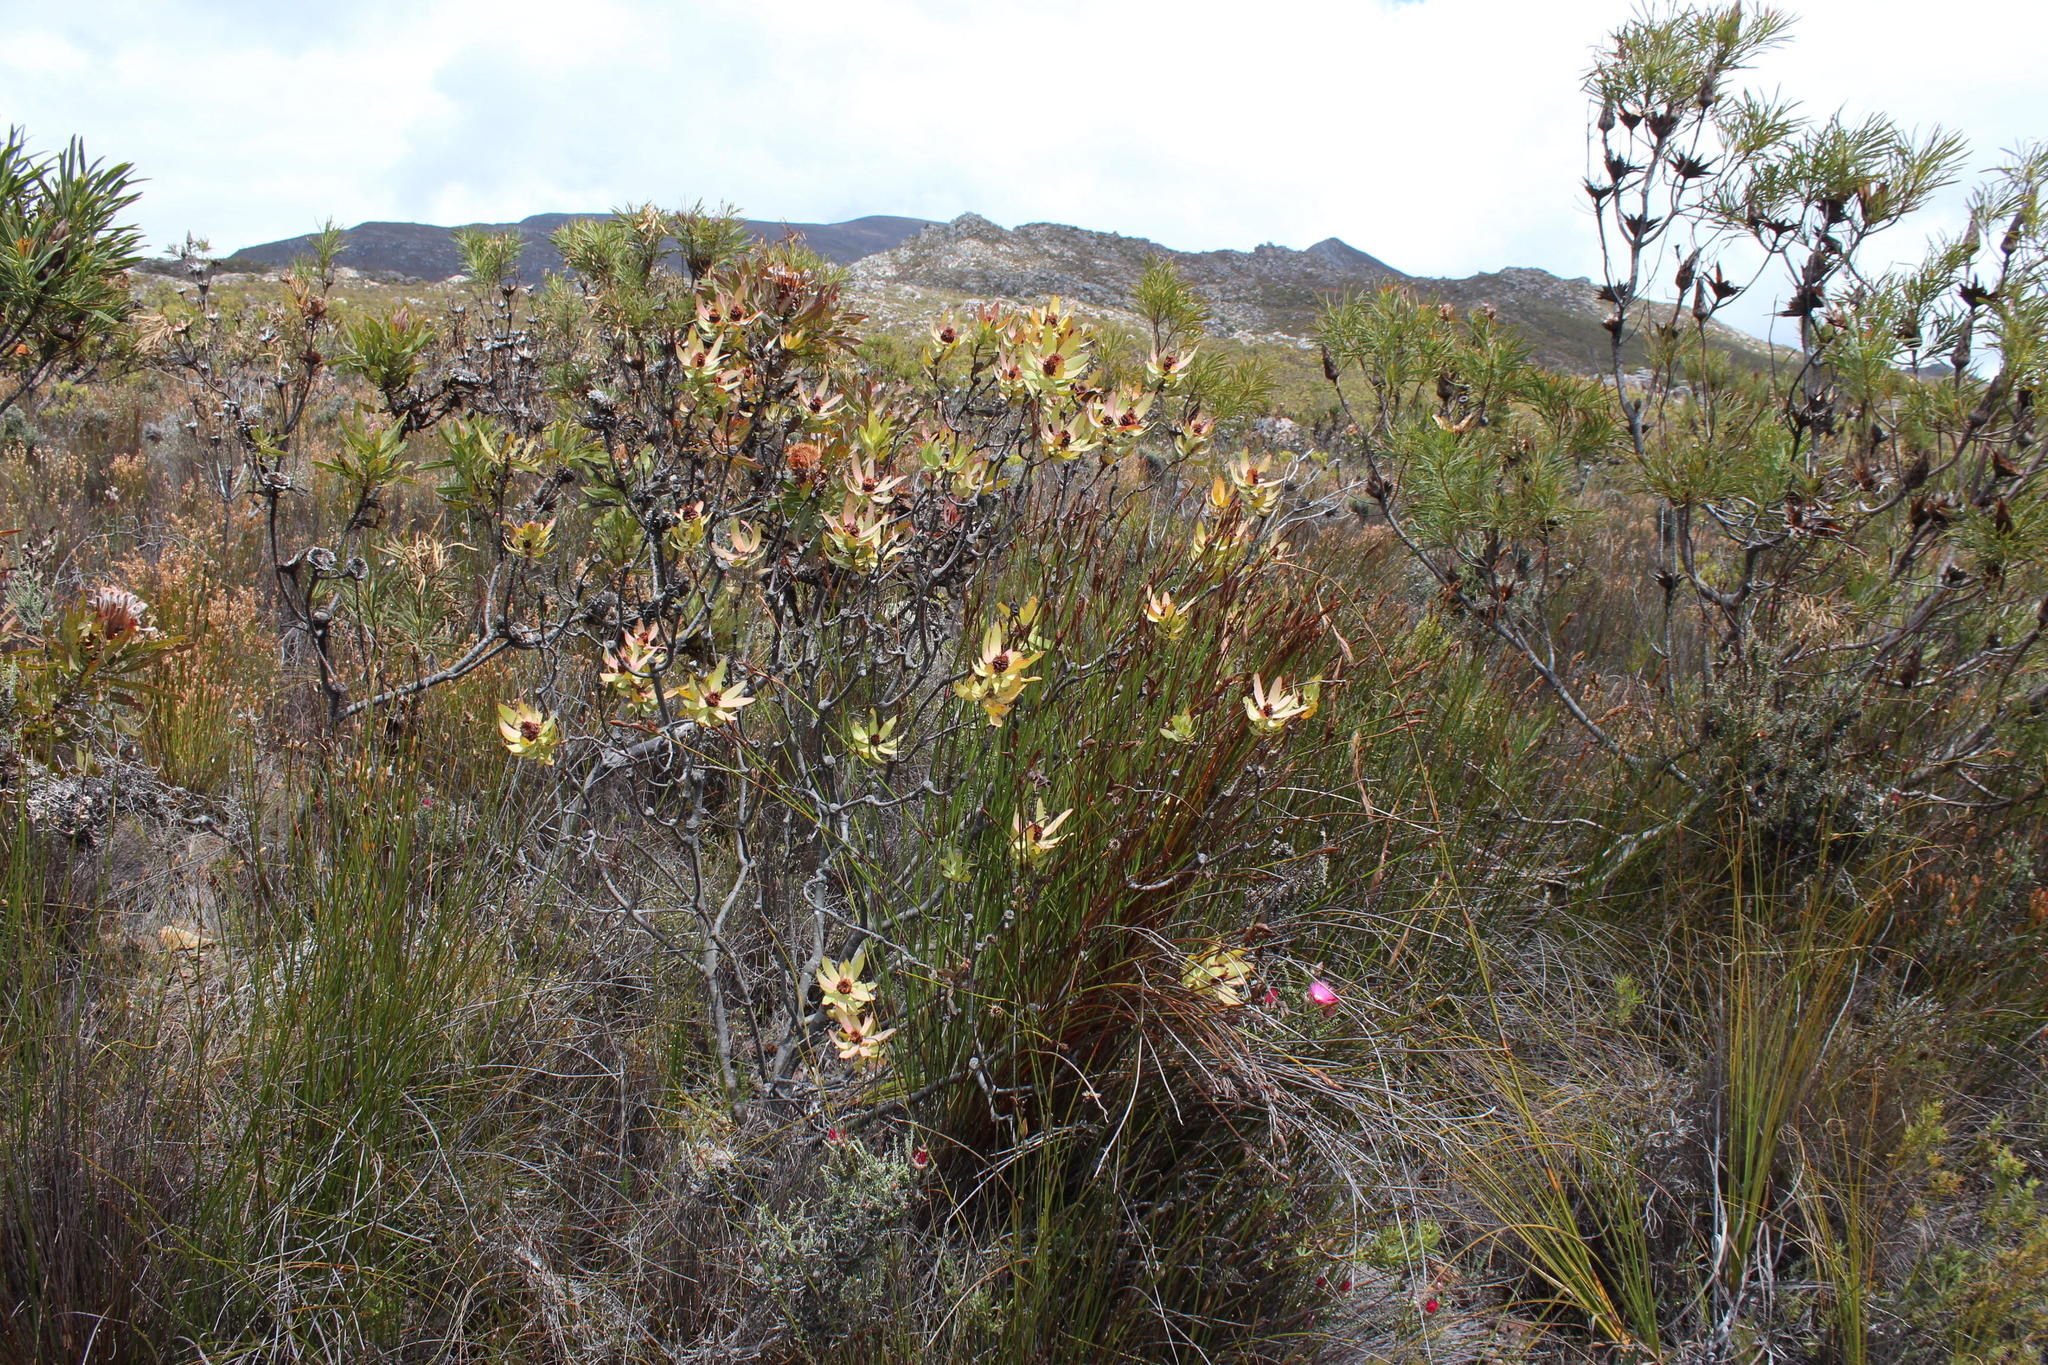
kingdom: Plantae
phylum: Tracheophyta
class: Magnoliopsida
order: Proteales
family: Proteaceae
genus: Leucadendron
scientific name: Leucadendron burchellii
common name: Riviersonderend conebush
